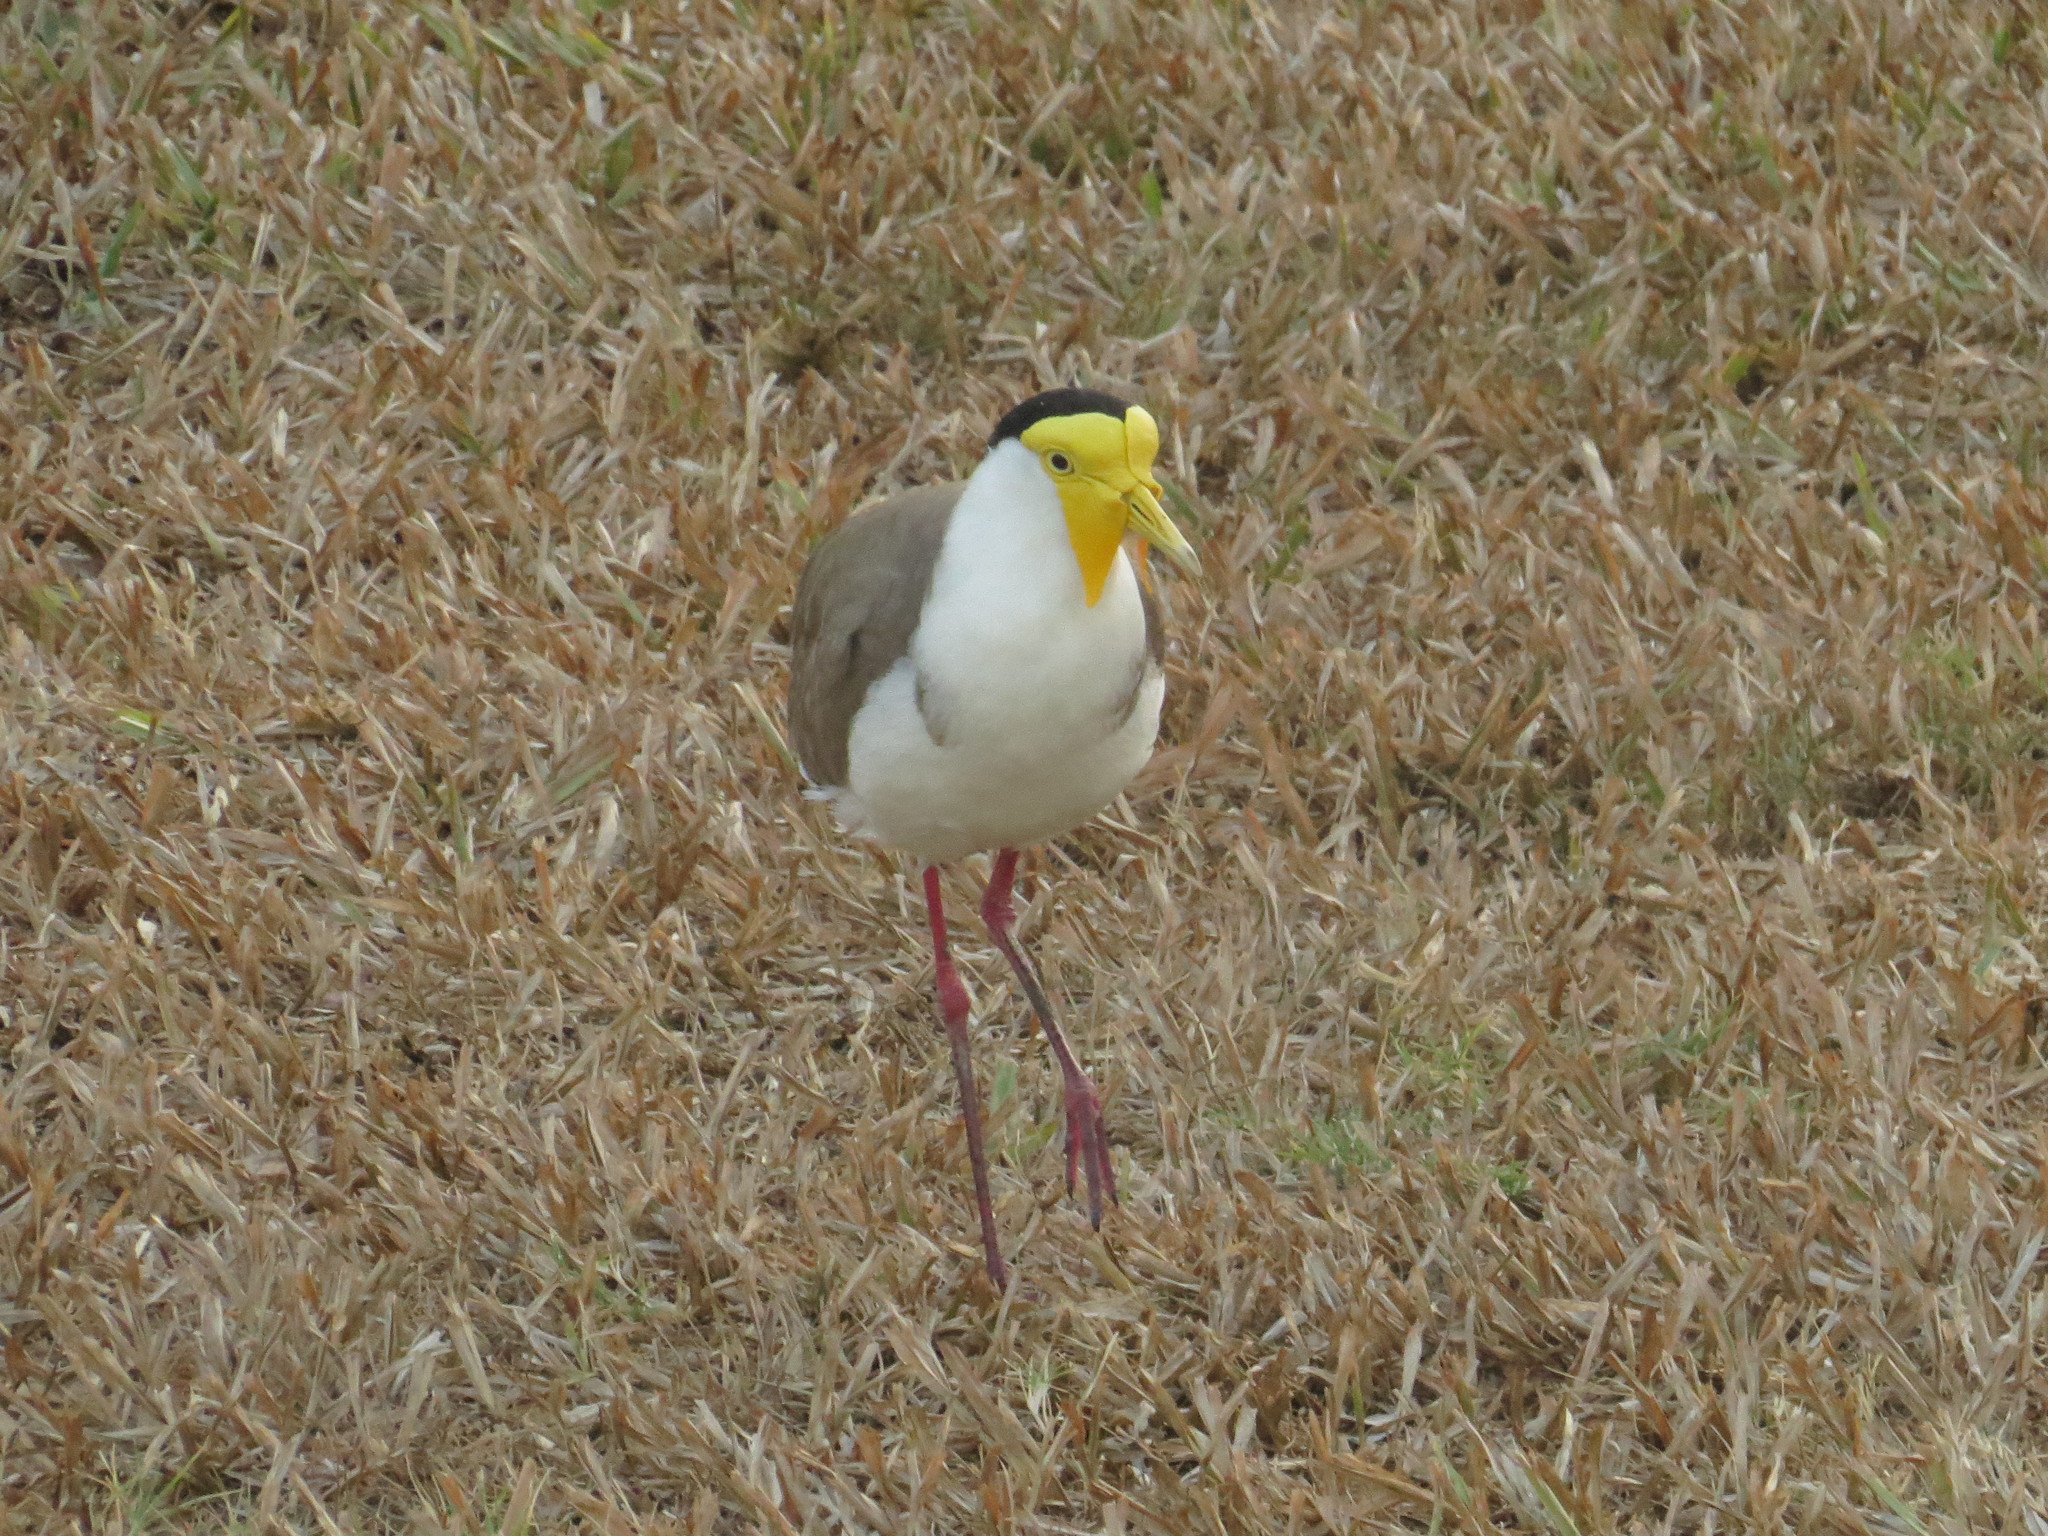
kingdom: Animalia
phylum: Chordata
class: Aves
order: Charadriiformes
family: Charadriidae
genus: Vanellus
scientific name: Vanellus miles
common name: Masked lapwing
